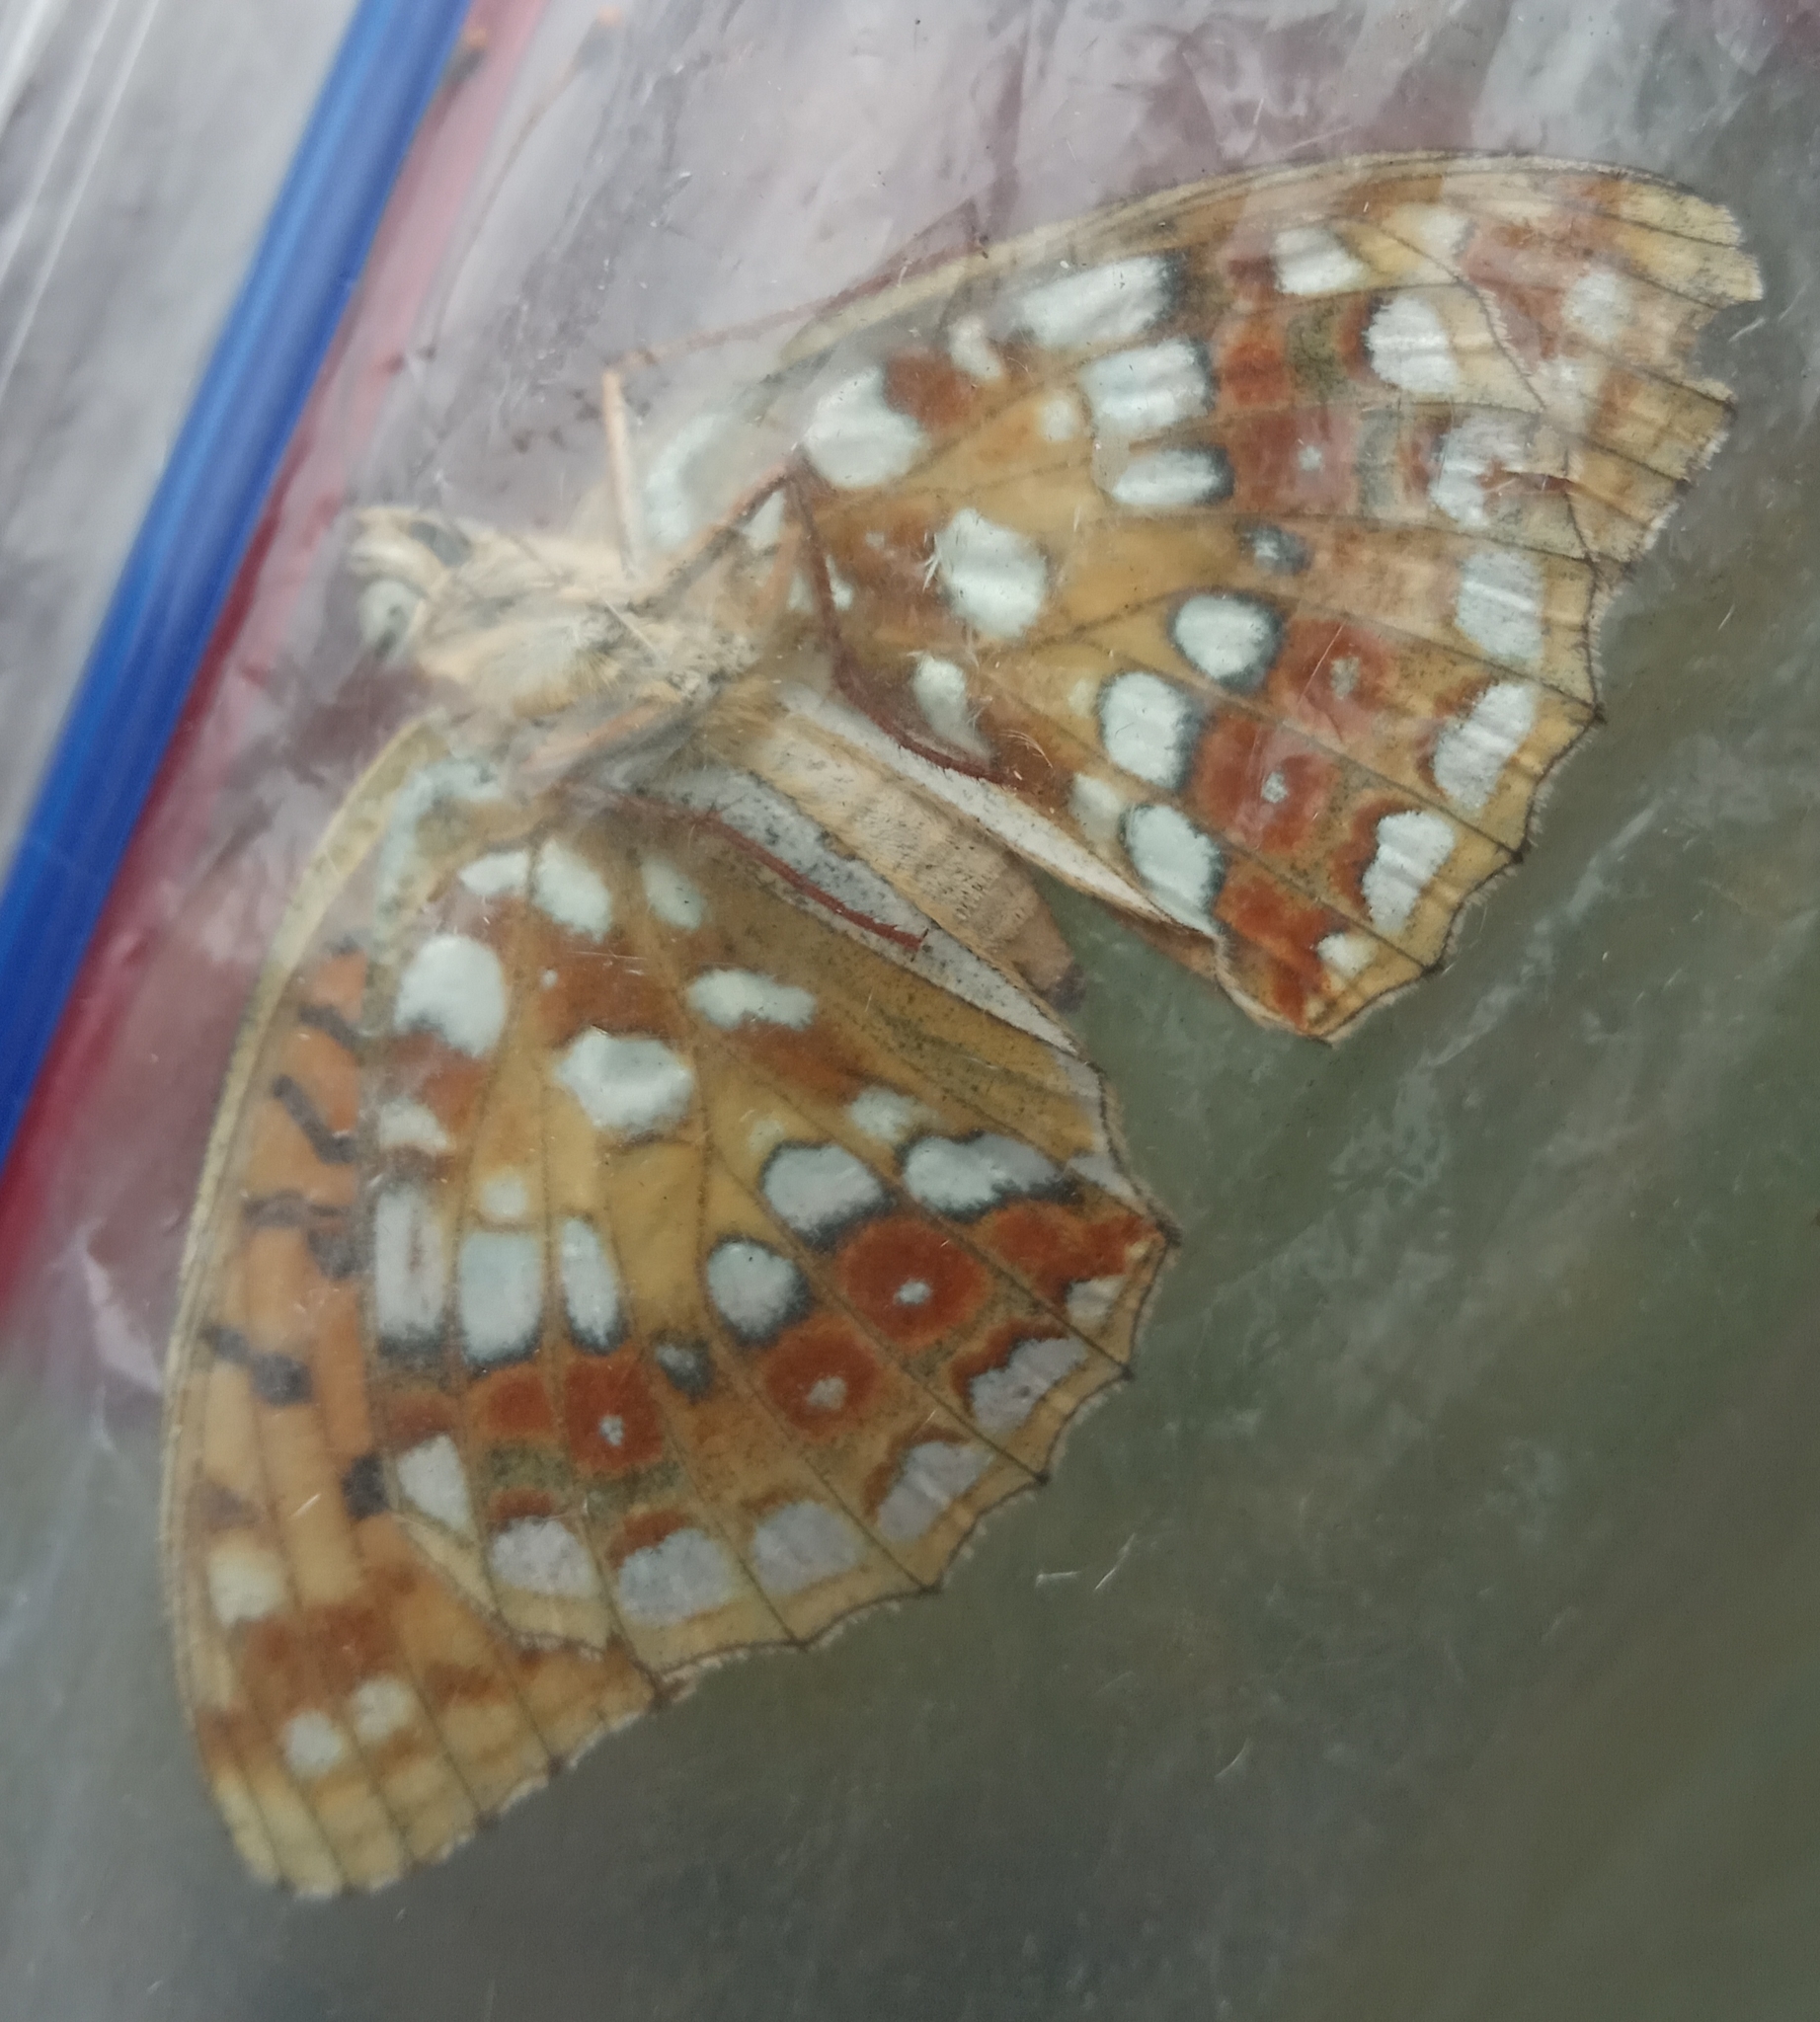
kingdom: Animalia
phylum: Arthropoda
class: Insecta
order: Lepidoptera
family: Nymphalidae
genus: Fabriciana
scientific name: Fabriciana adippe
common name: High brown fritillary
